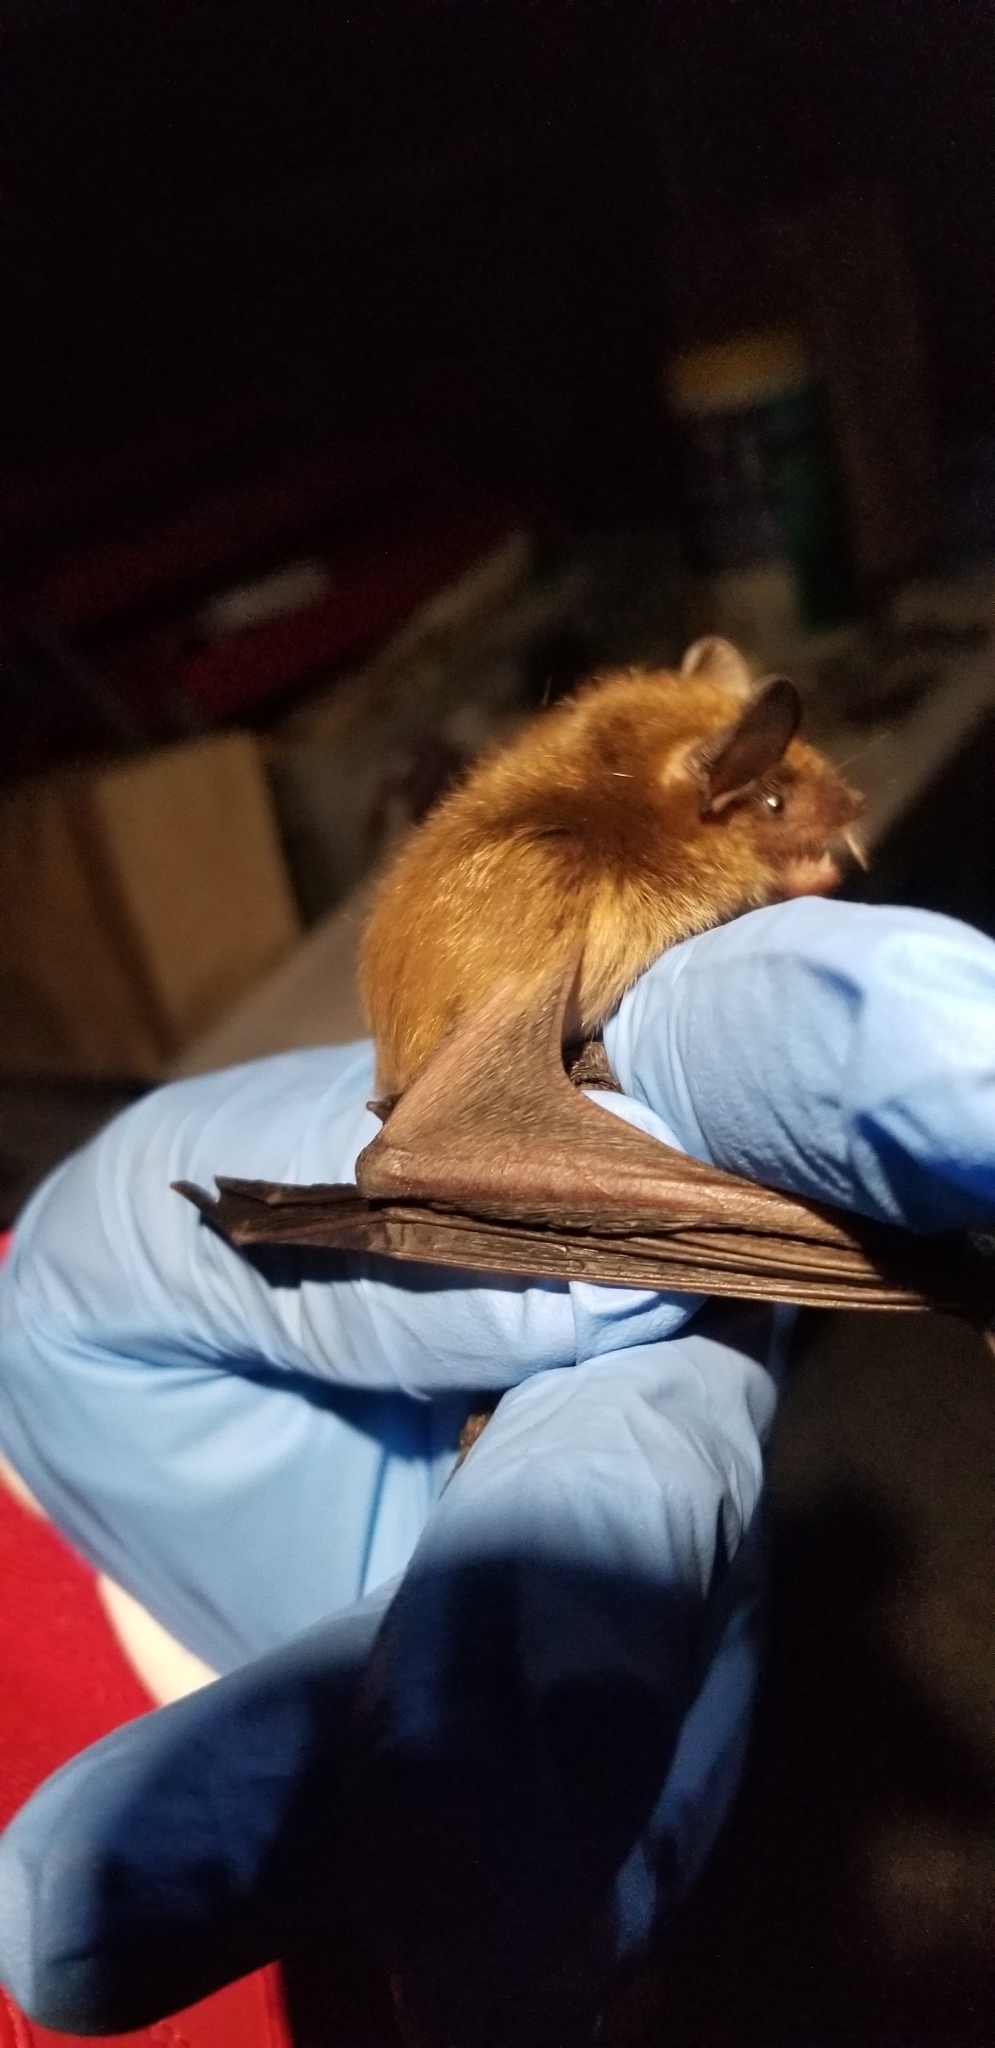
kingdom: Animalia
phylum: Chordata
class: Mammalia
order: Chiroptera
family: Vespertilionidae
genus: Eptesicus
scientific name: Eptesicus fuscus
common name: Big brown bat
